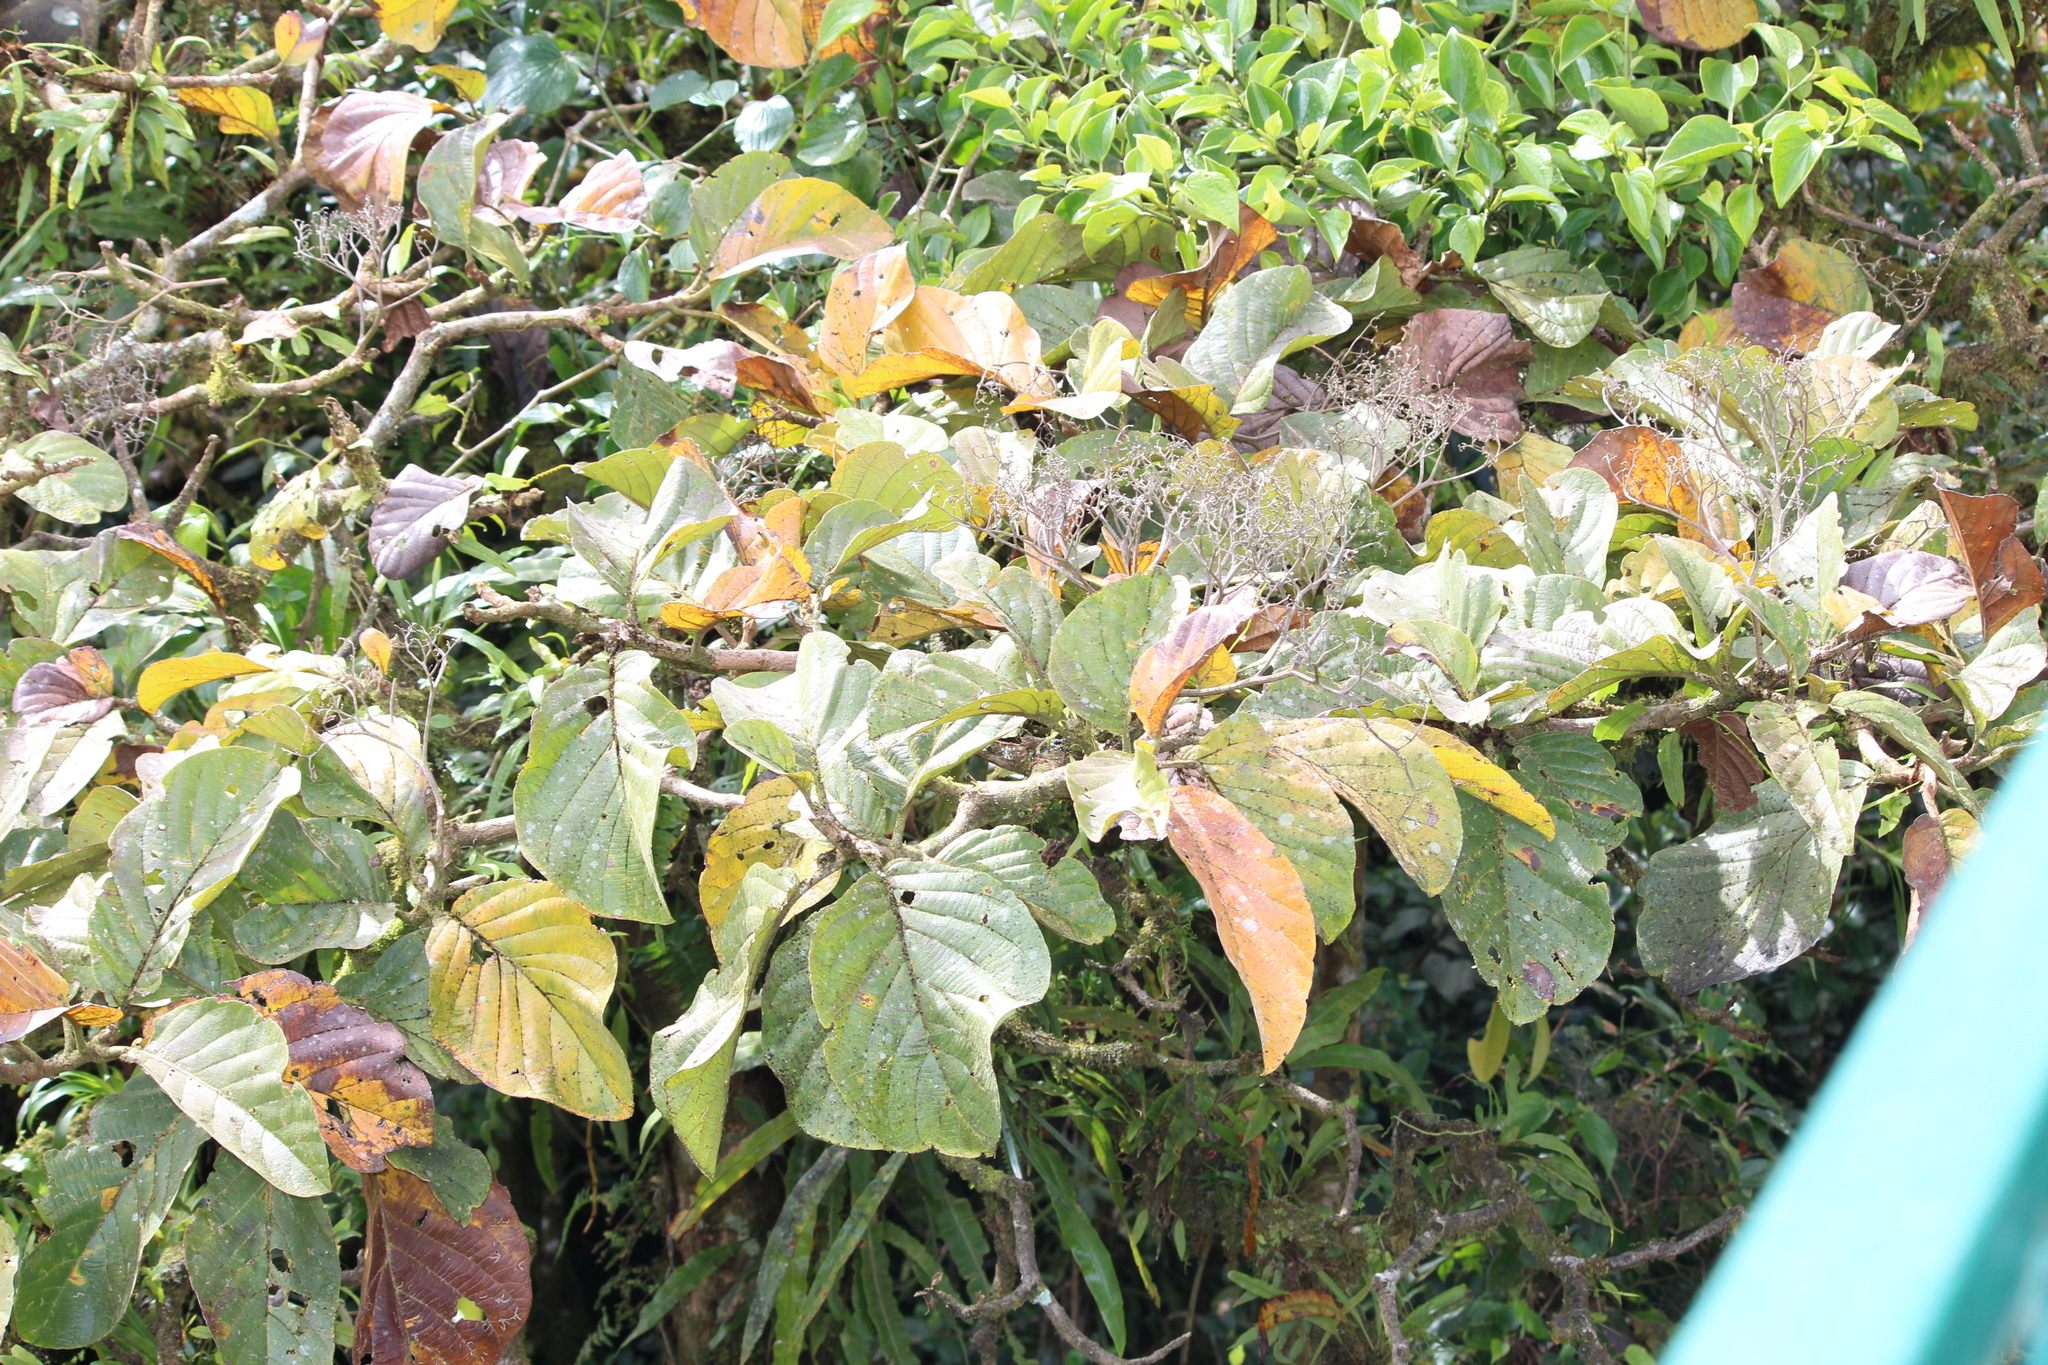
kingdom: Plantae
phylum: Tracheophyta
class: Magnoliopsida
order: Boraginales
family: Cordiaceae
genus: Cordia
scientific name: Cordia cymosa
